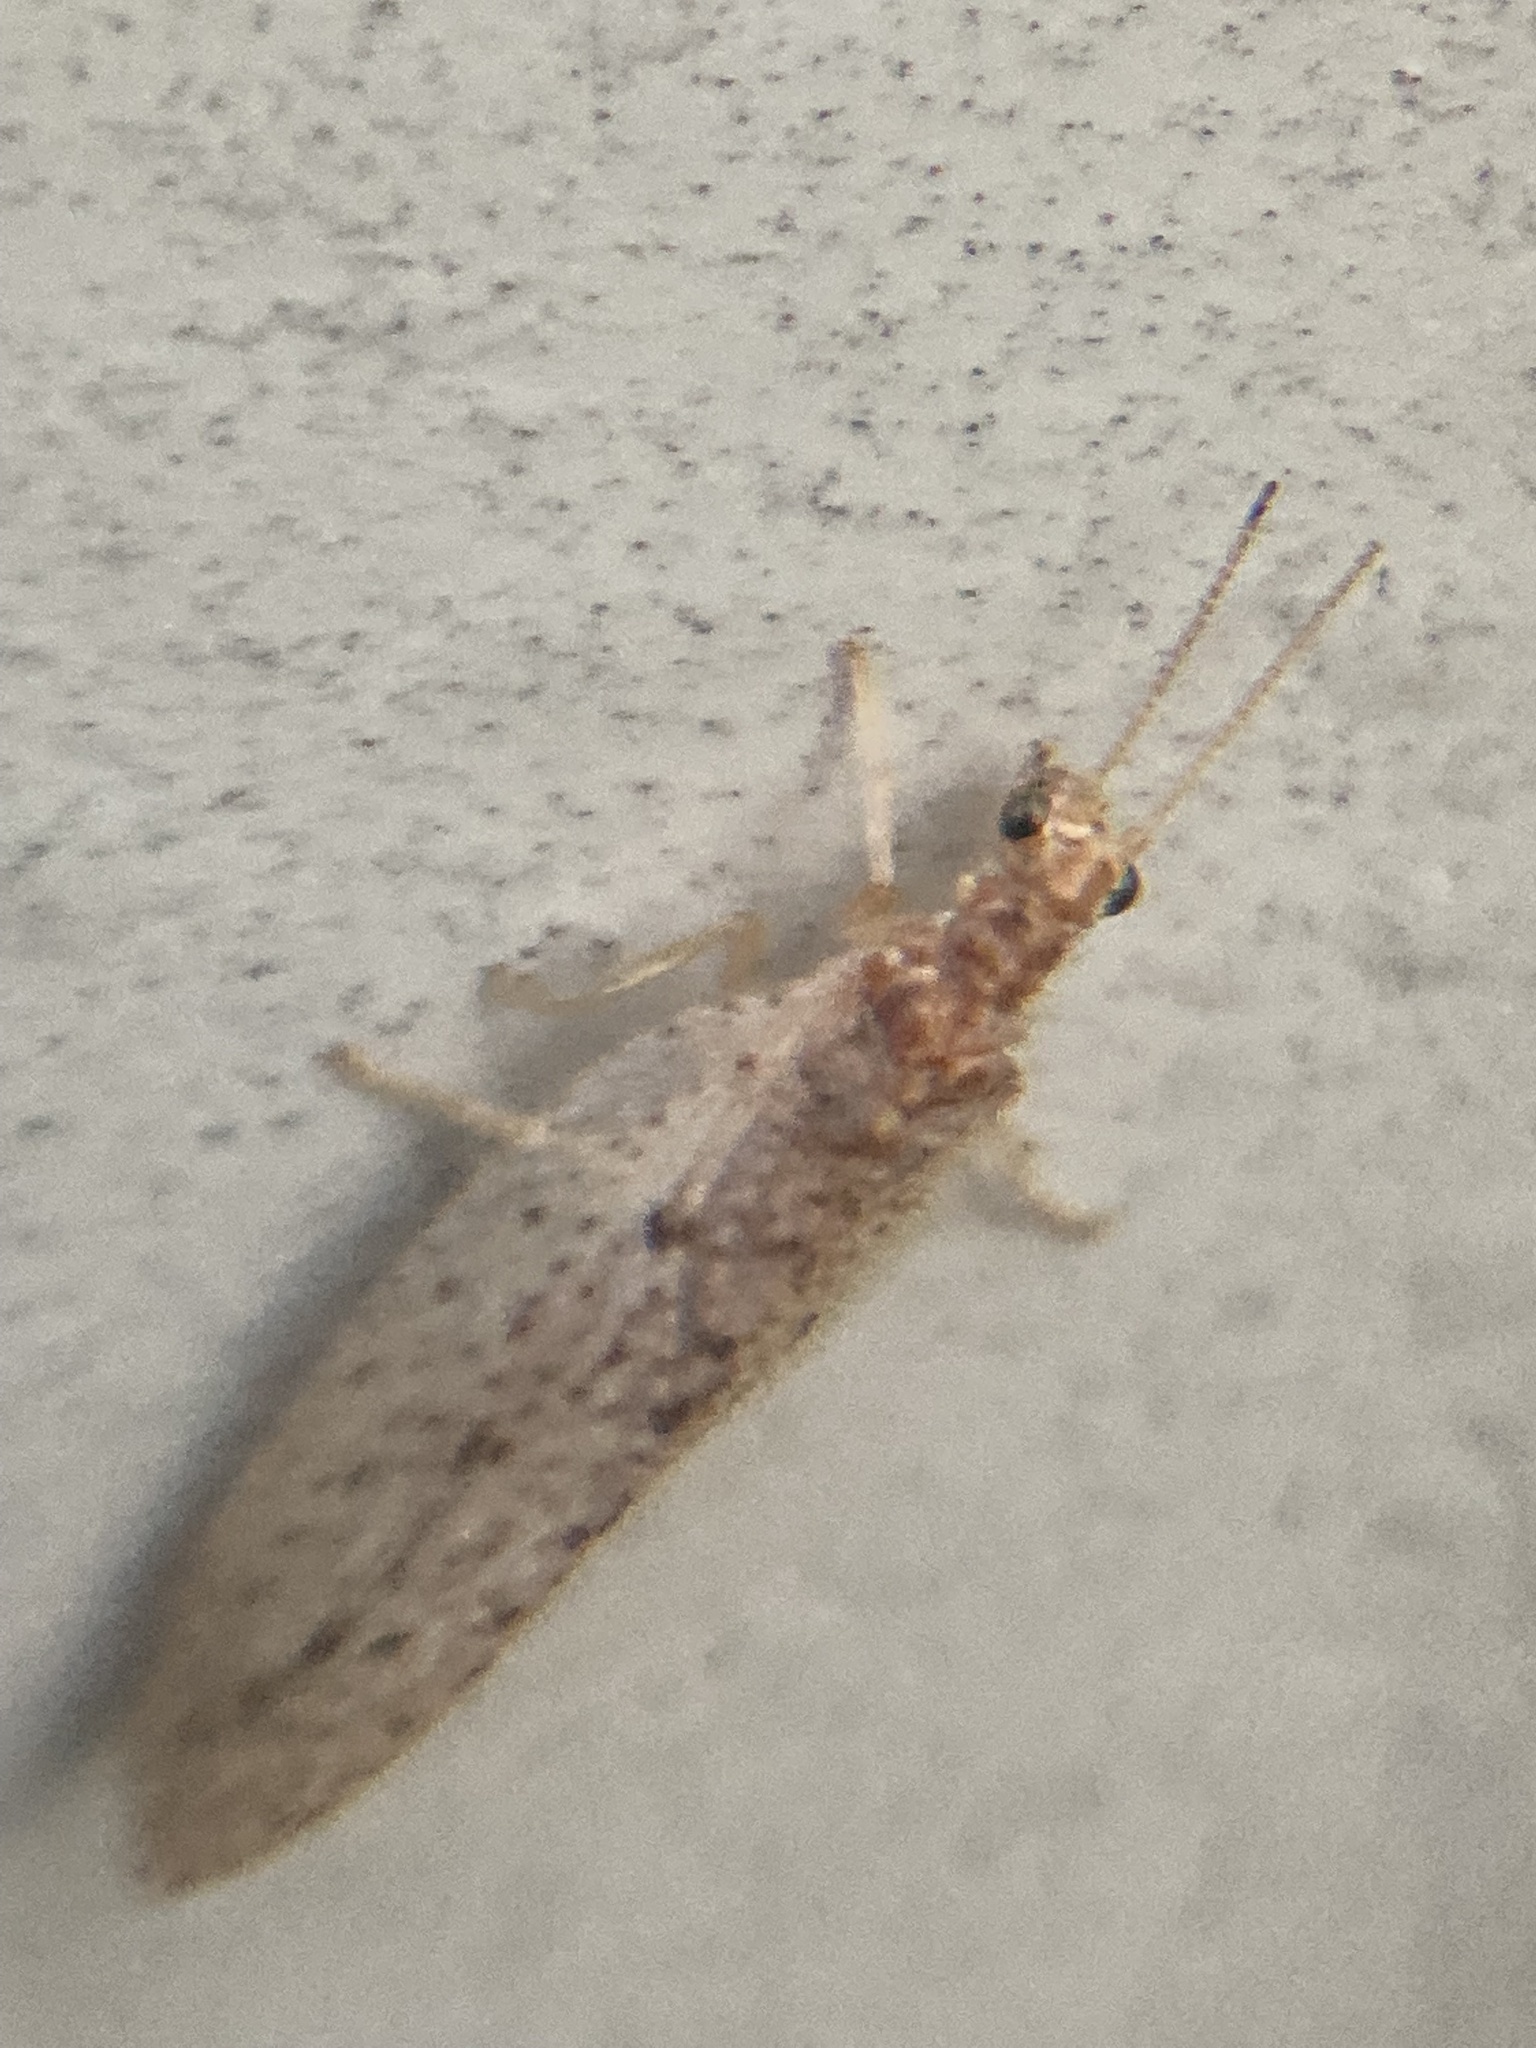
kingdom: Animalia
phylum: Arthropoda
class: Insecta
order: Neuroptera
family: Hemerobiidae
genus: Micromus
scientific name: Micromus subanticus
